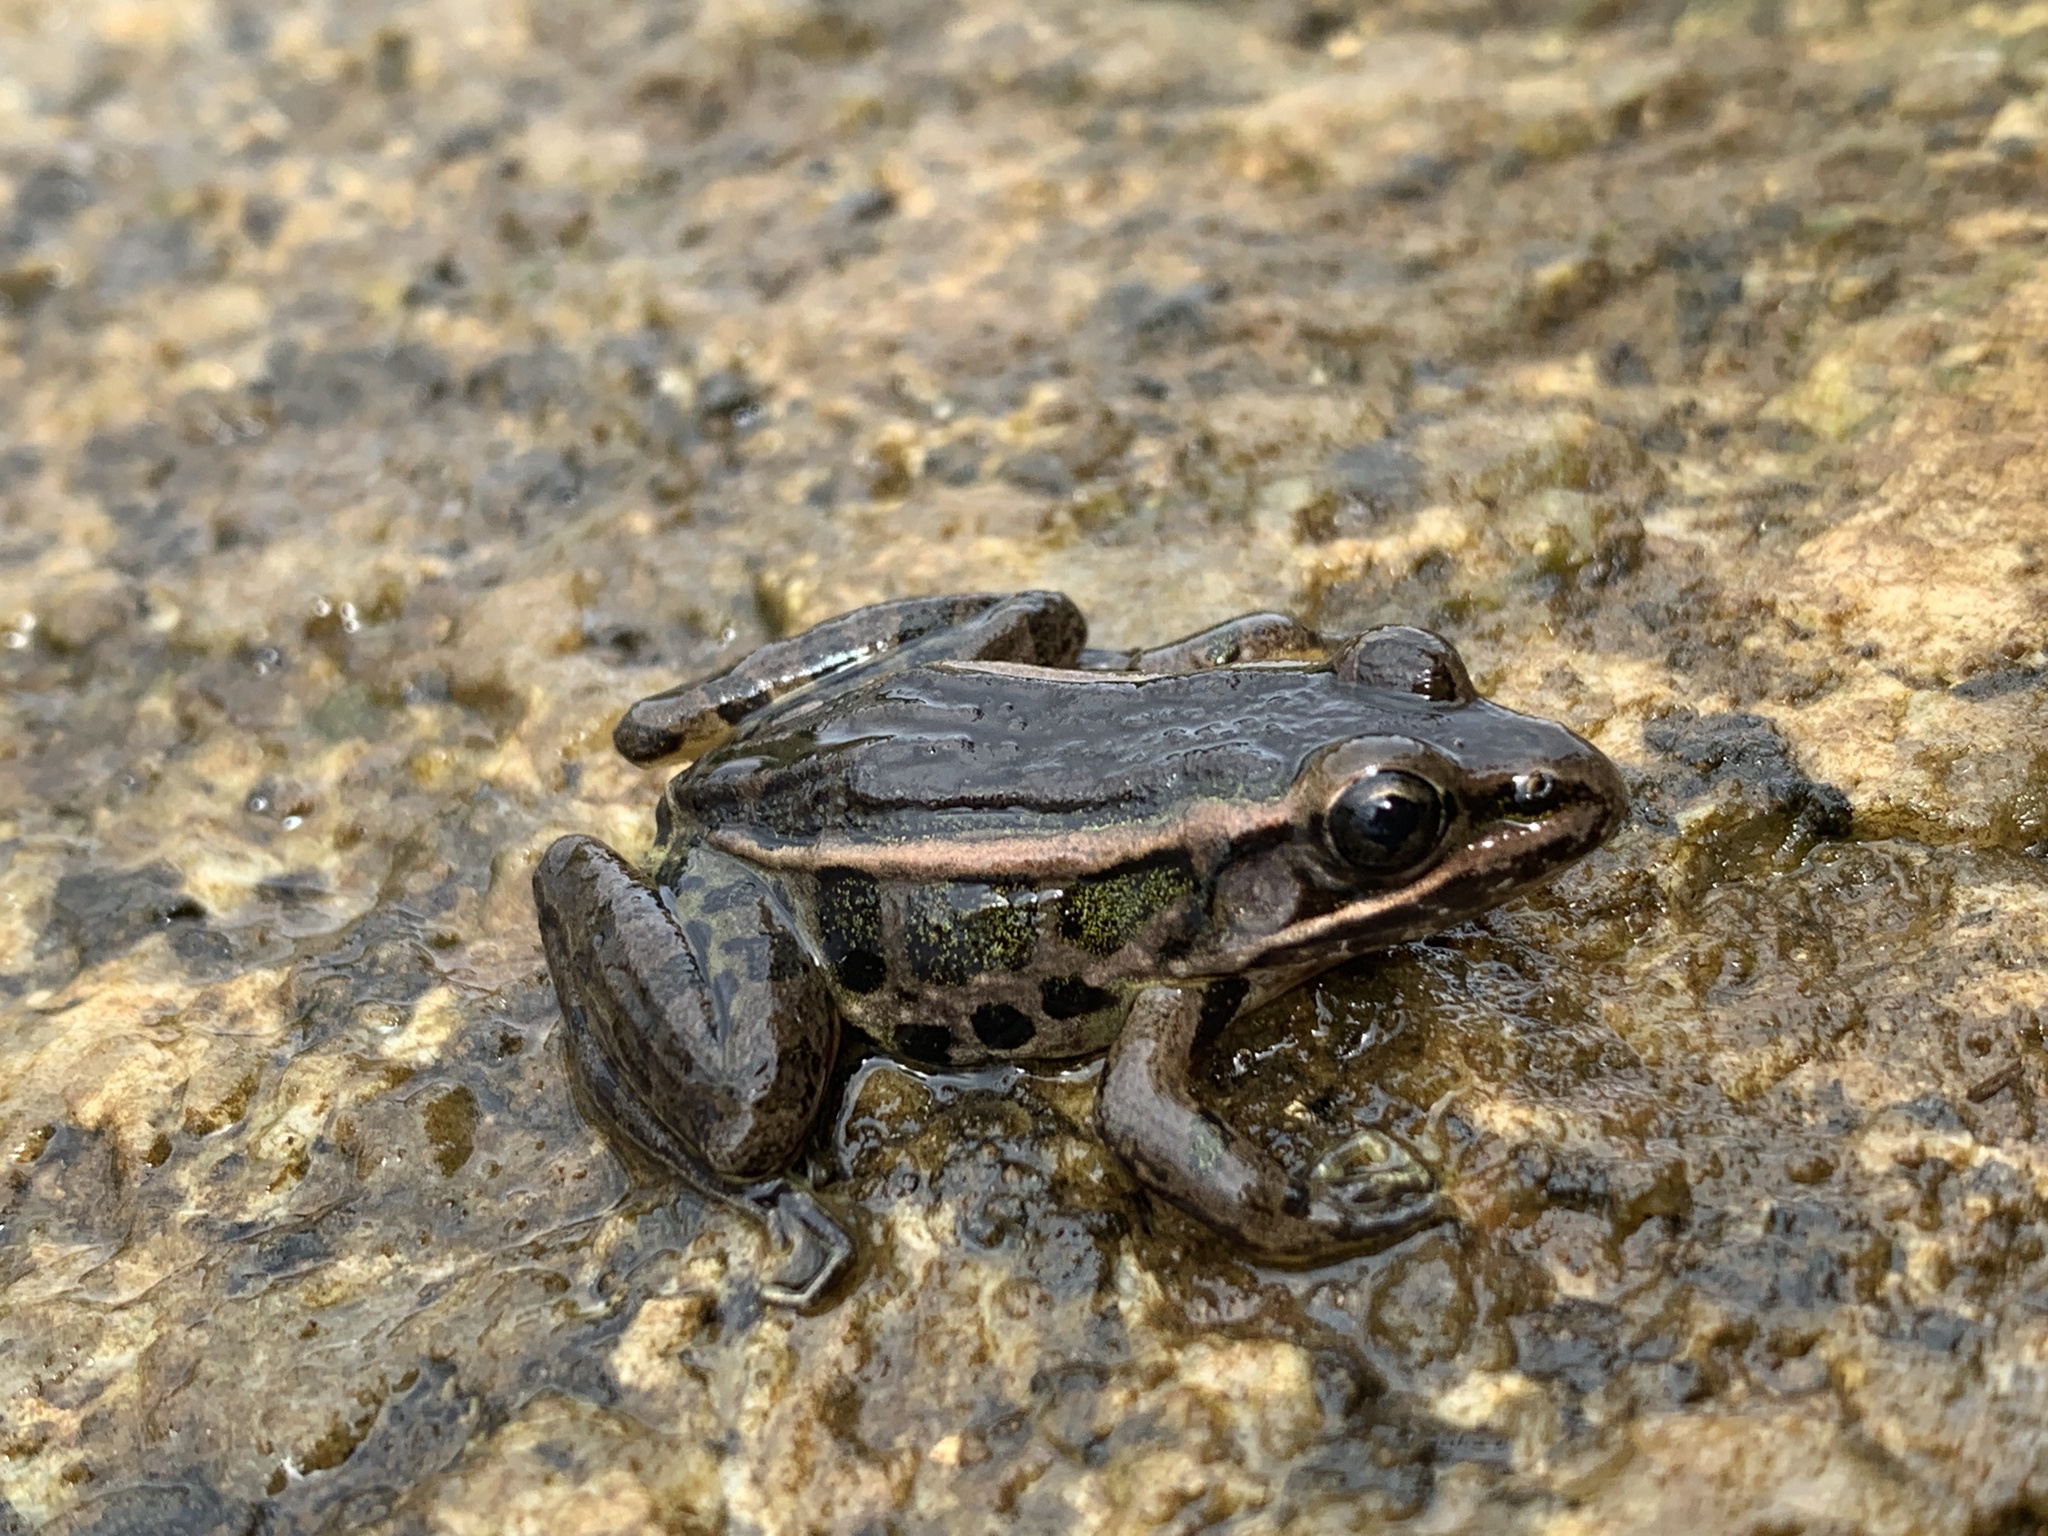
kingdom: Animalia
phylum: Chordata
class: Amphibia
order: Anura
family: Ranidae
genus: Lithobates
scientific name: Lithobates palustris
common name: Pickerel frog
